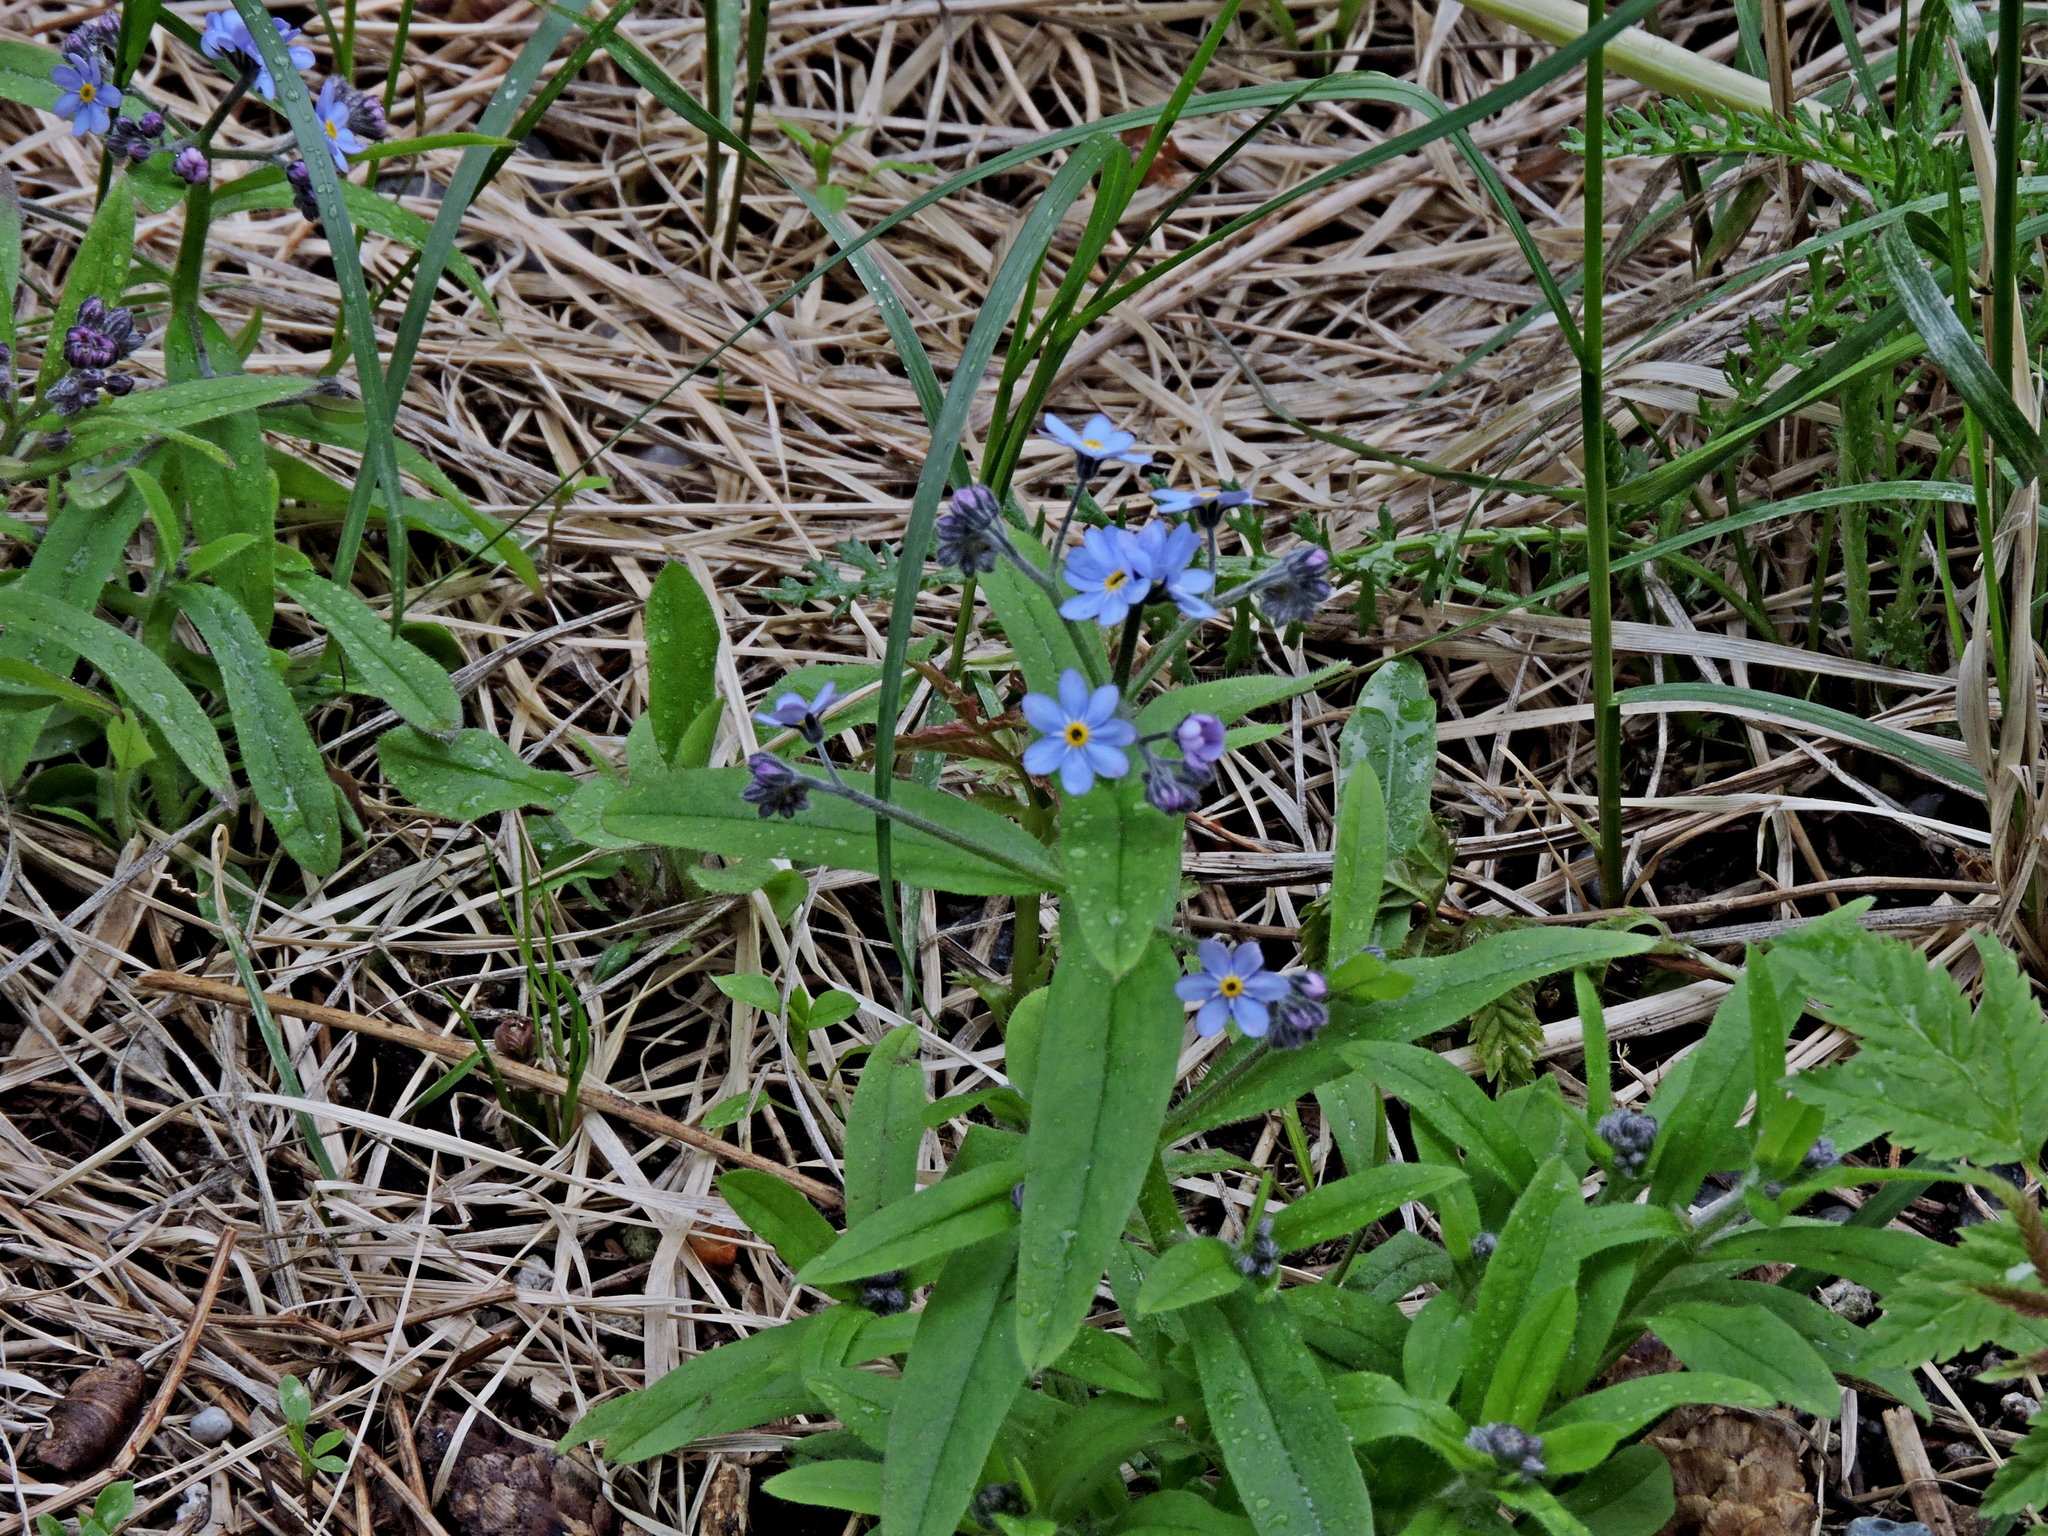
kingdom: Plantae
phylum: Tracheophyta
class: Magnoliopsida
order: Boraginales
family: Boraginaceae
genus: Myosotis
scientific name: Myosotis asiatica
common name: Asian forget-me-not
